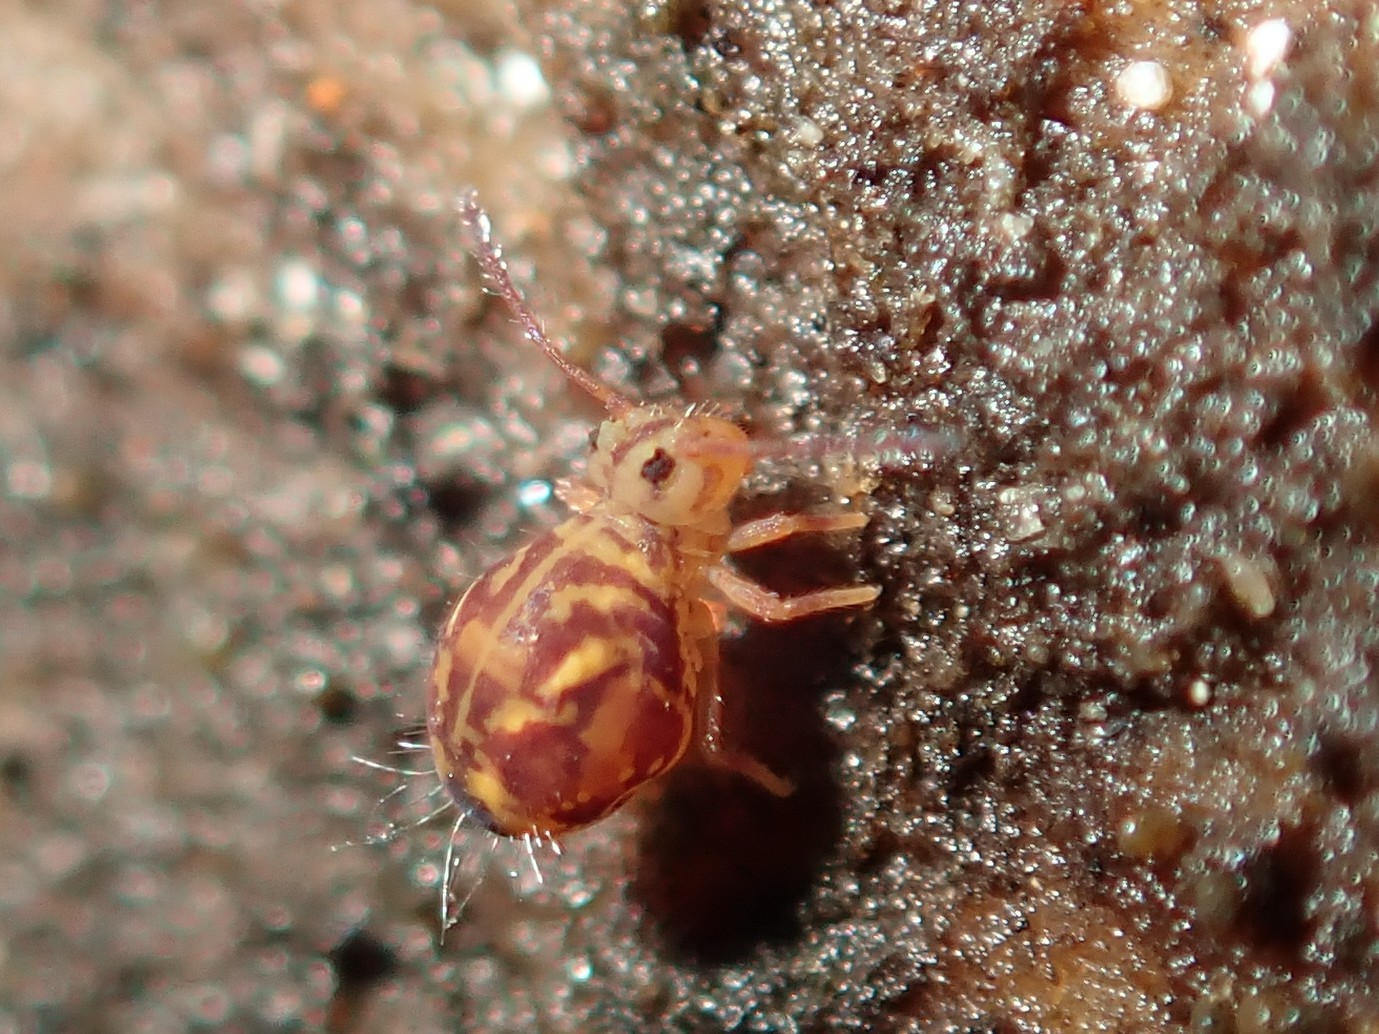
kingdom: Animalia
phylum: Arthropoda
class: Collembola
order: Symphypleona
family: Dicyrtomidae
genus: Dicyrtomina
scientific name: Dicyrtomina ornata
